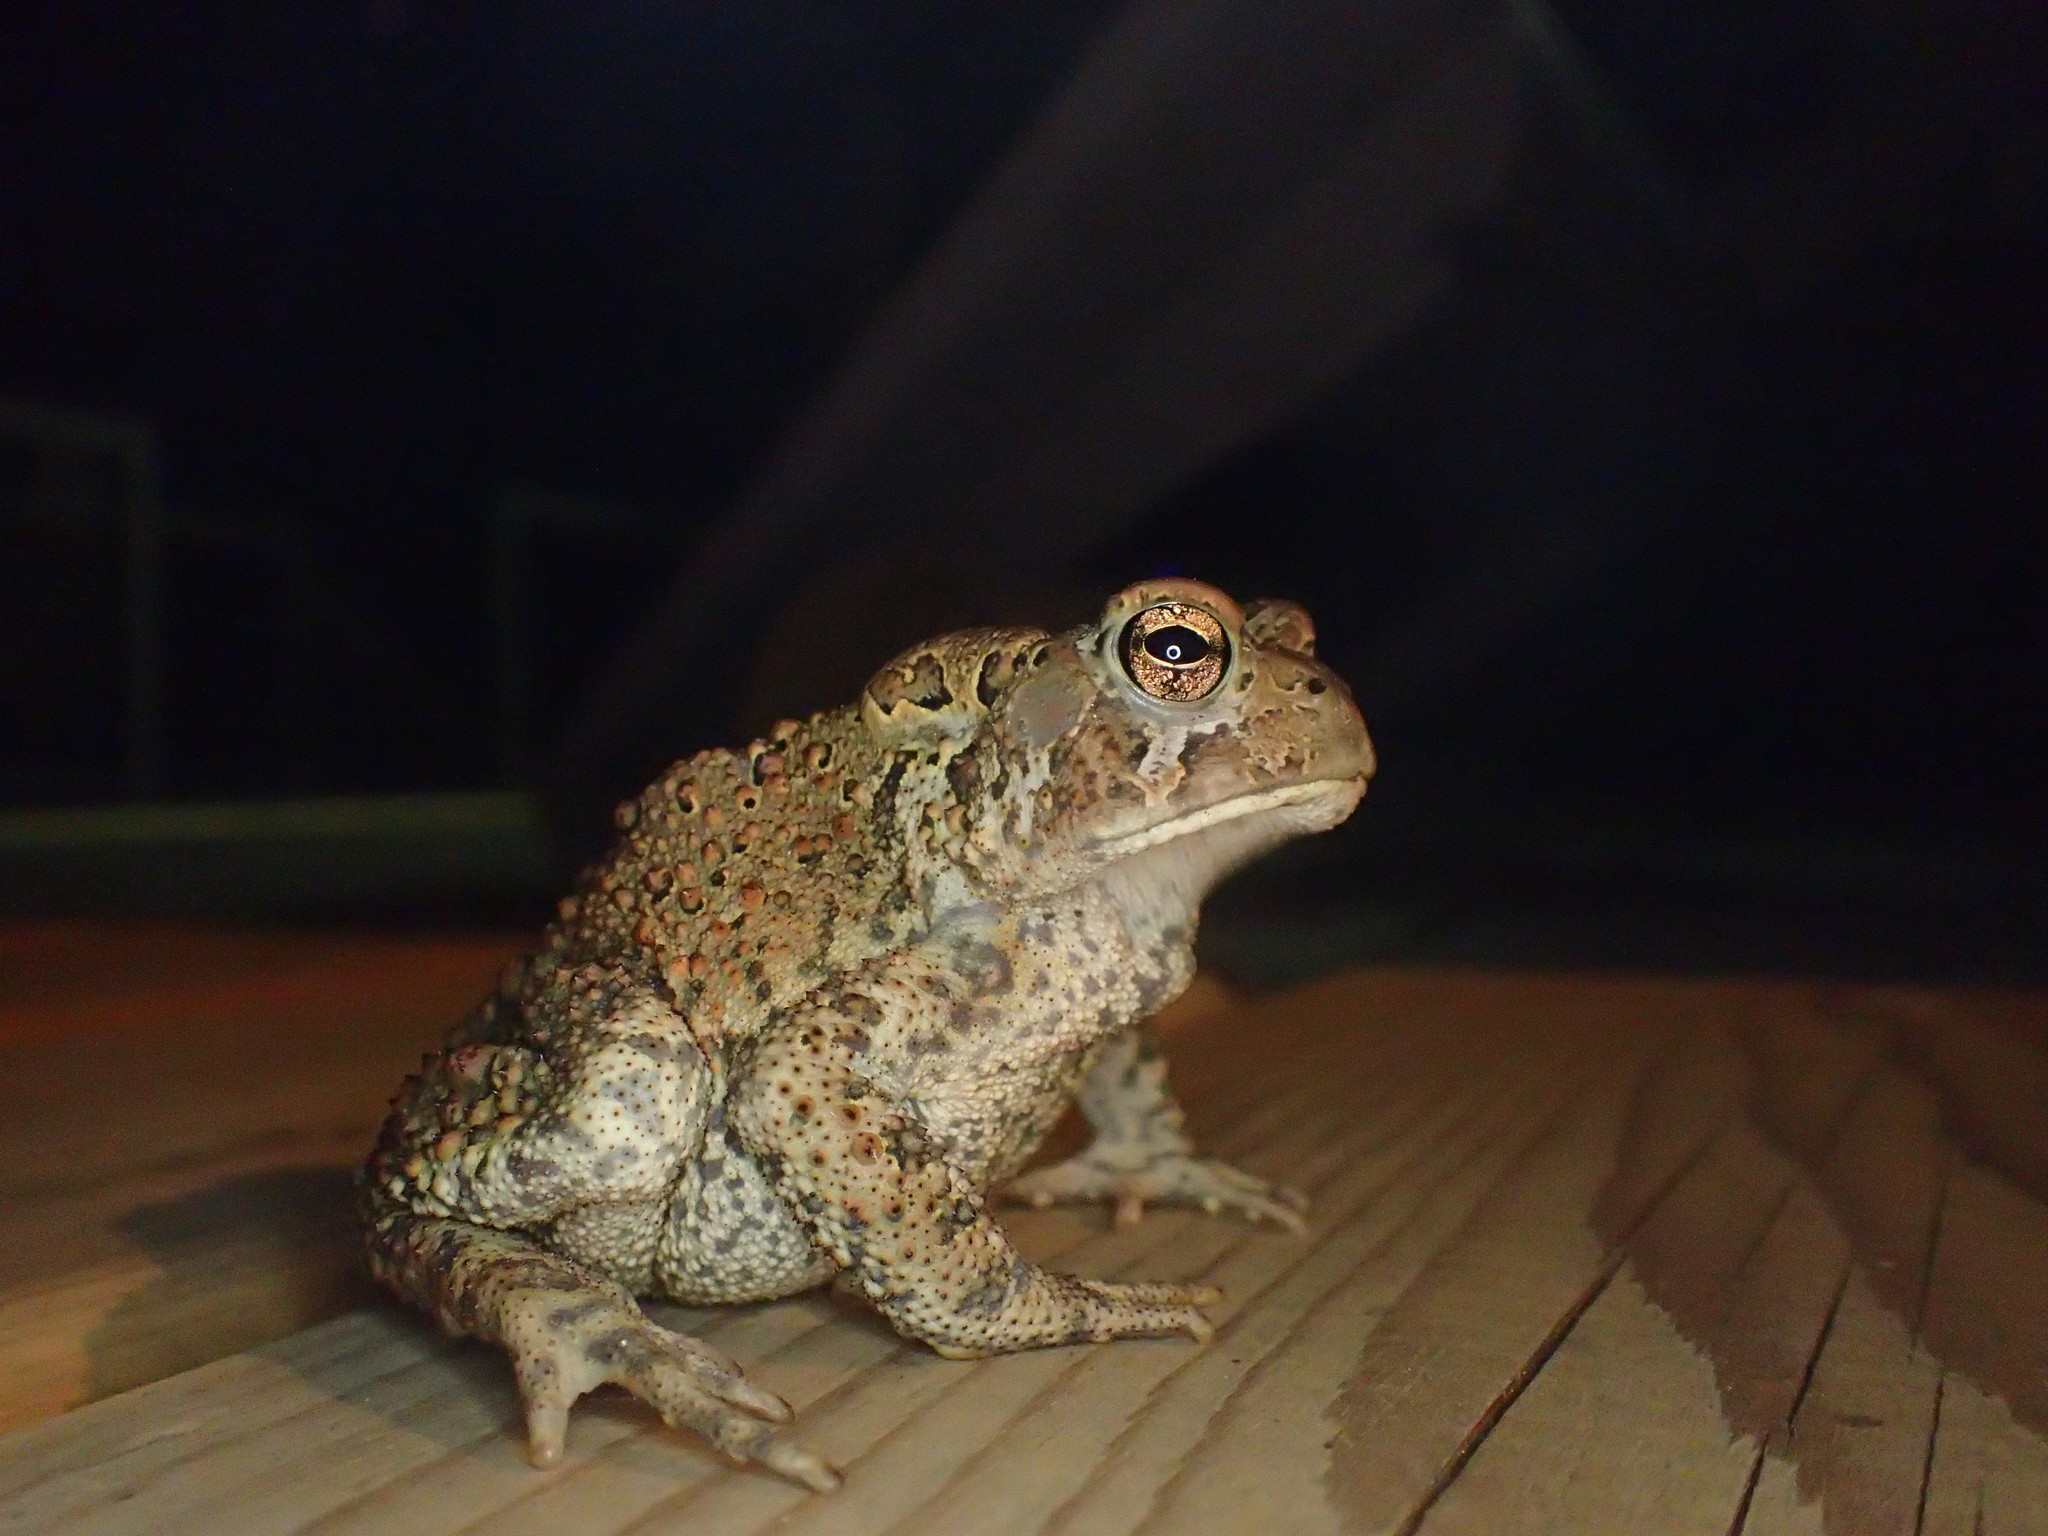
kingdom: Animalia
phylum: Chordata
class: Amphibia
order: Anura
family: Bufonidae
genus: Anaxyrus
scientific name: Anaxyrus americanus
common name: American toad
